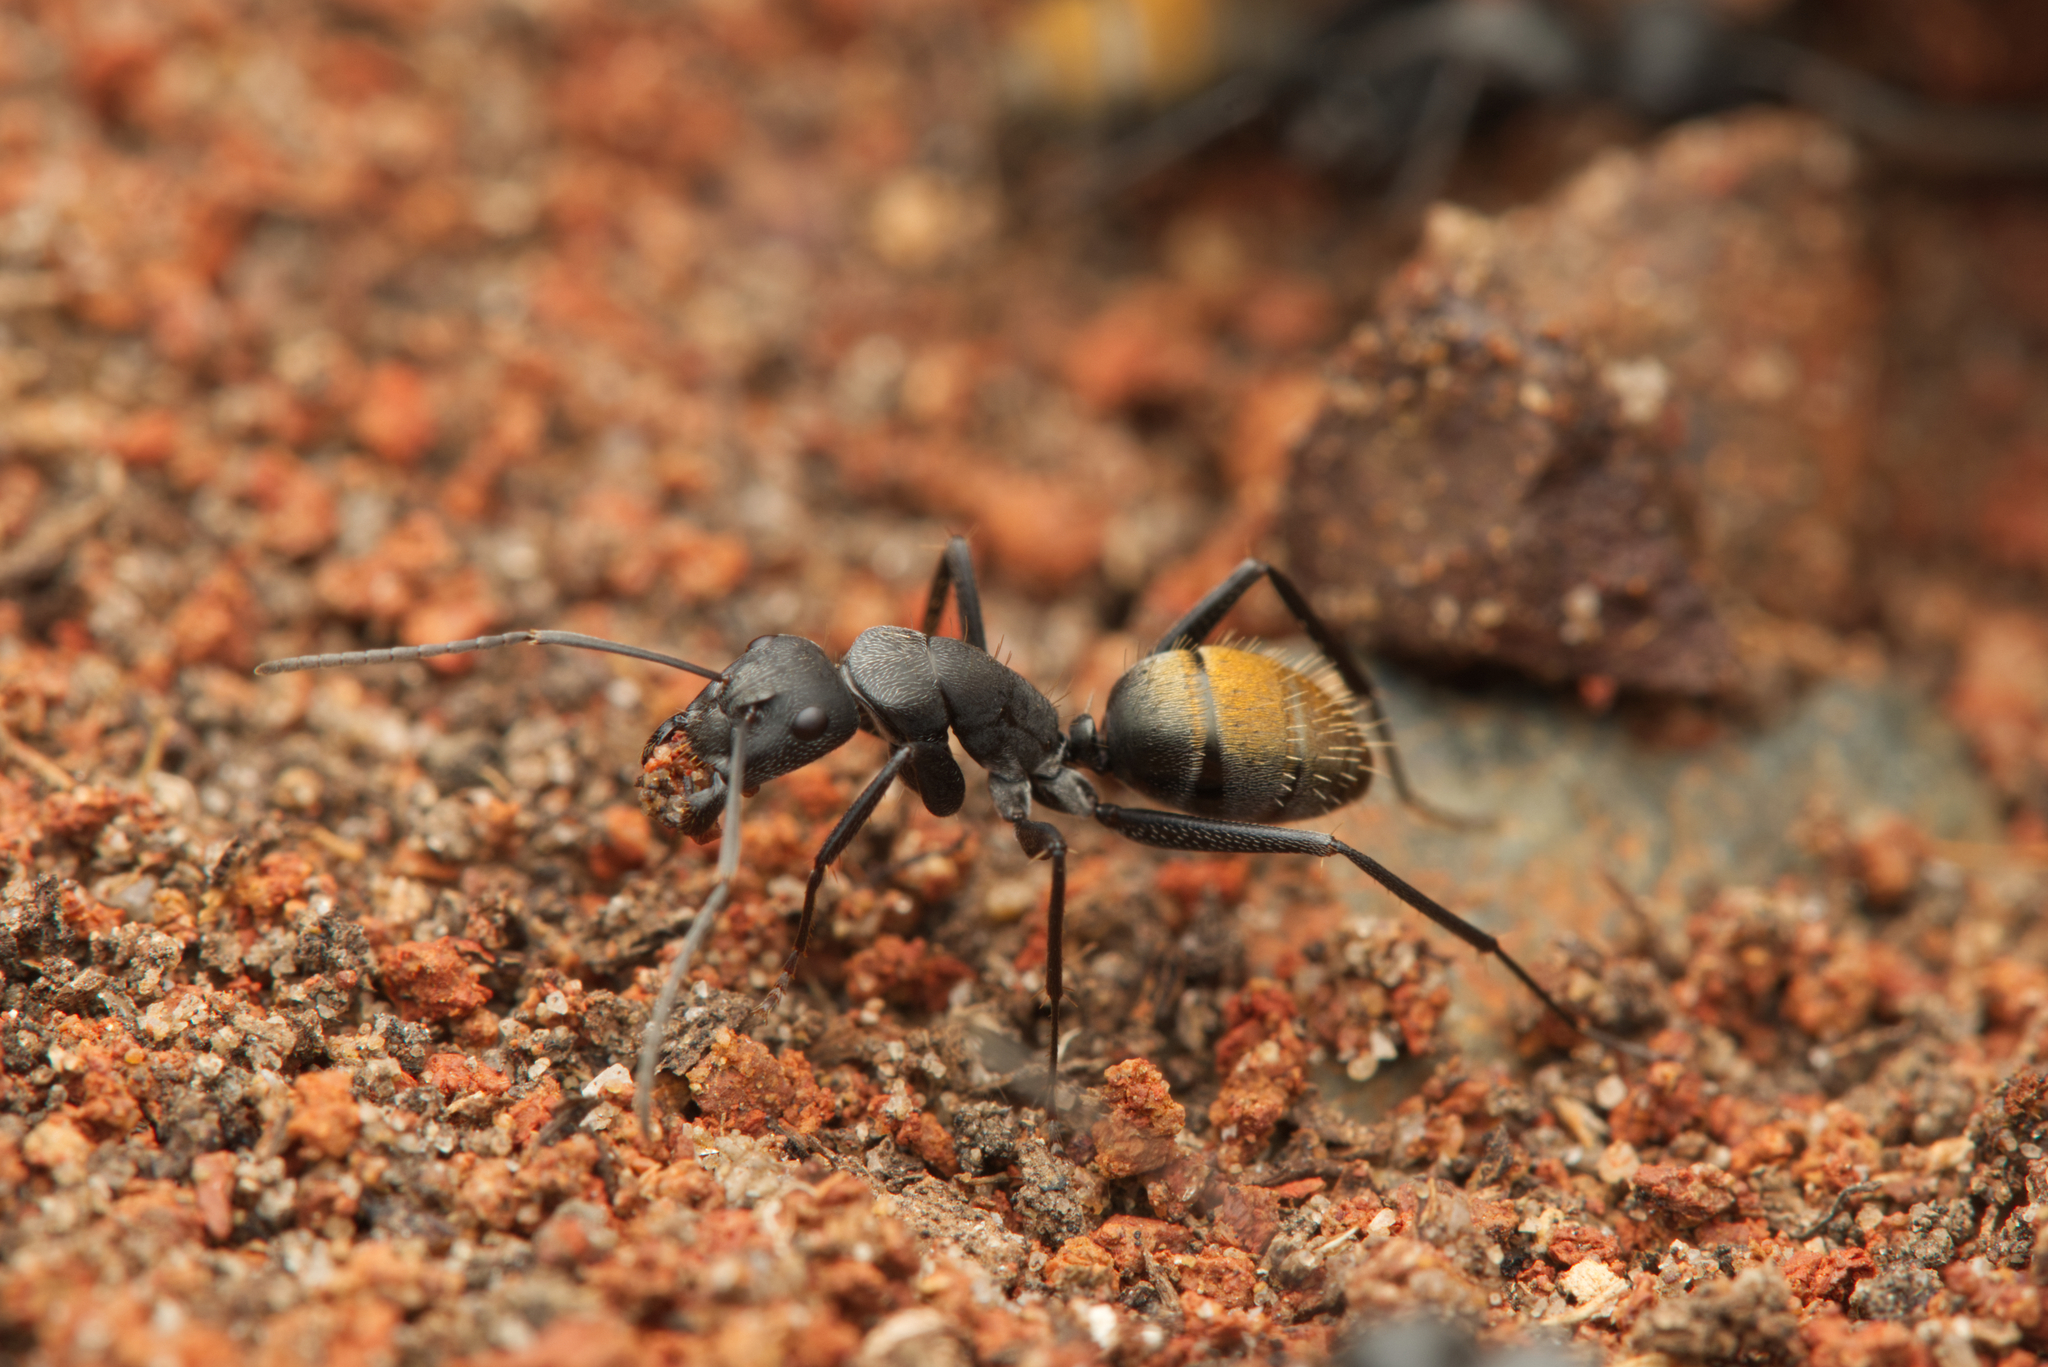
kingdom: Animalia
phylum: Arthropoda
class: Insecta
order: Hymenoptera
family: Formicidae
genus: Camponotus
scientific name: Camponotus aeneopilosus
